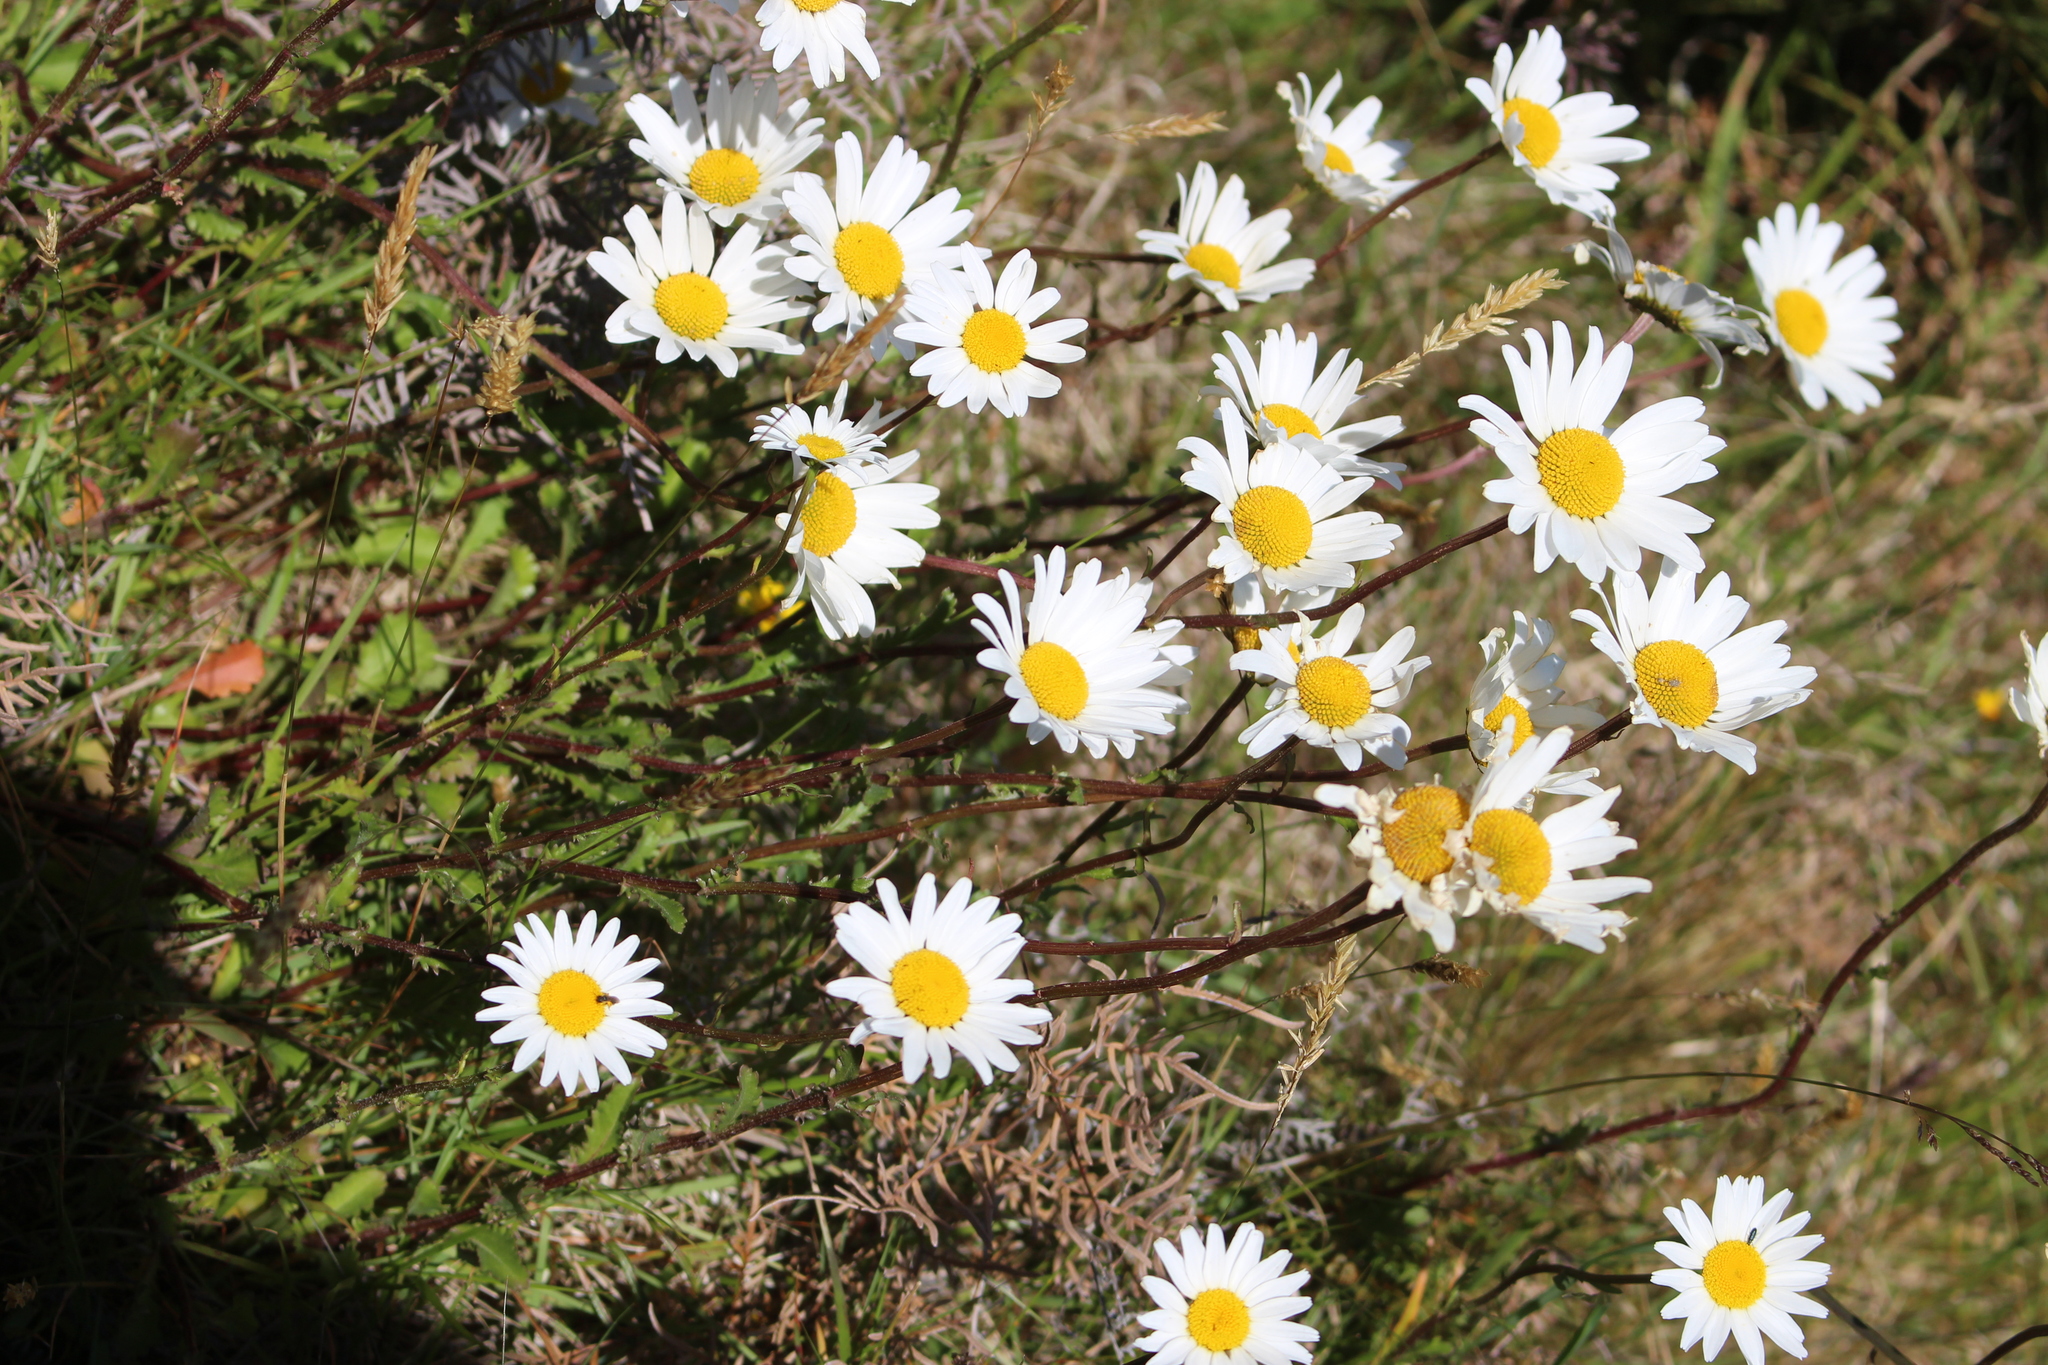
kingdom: Plantae
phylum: Tracheophyta
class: Magnoliopsida
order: Asterales
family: Asteraceae
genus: Leucanthemum
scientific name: Leucanthemum vulgare
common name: Oxeye daisy
